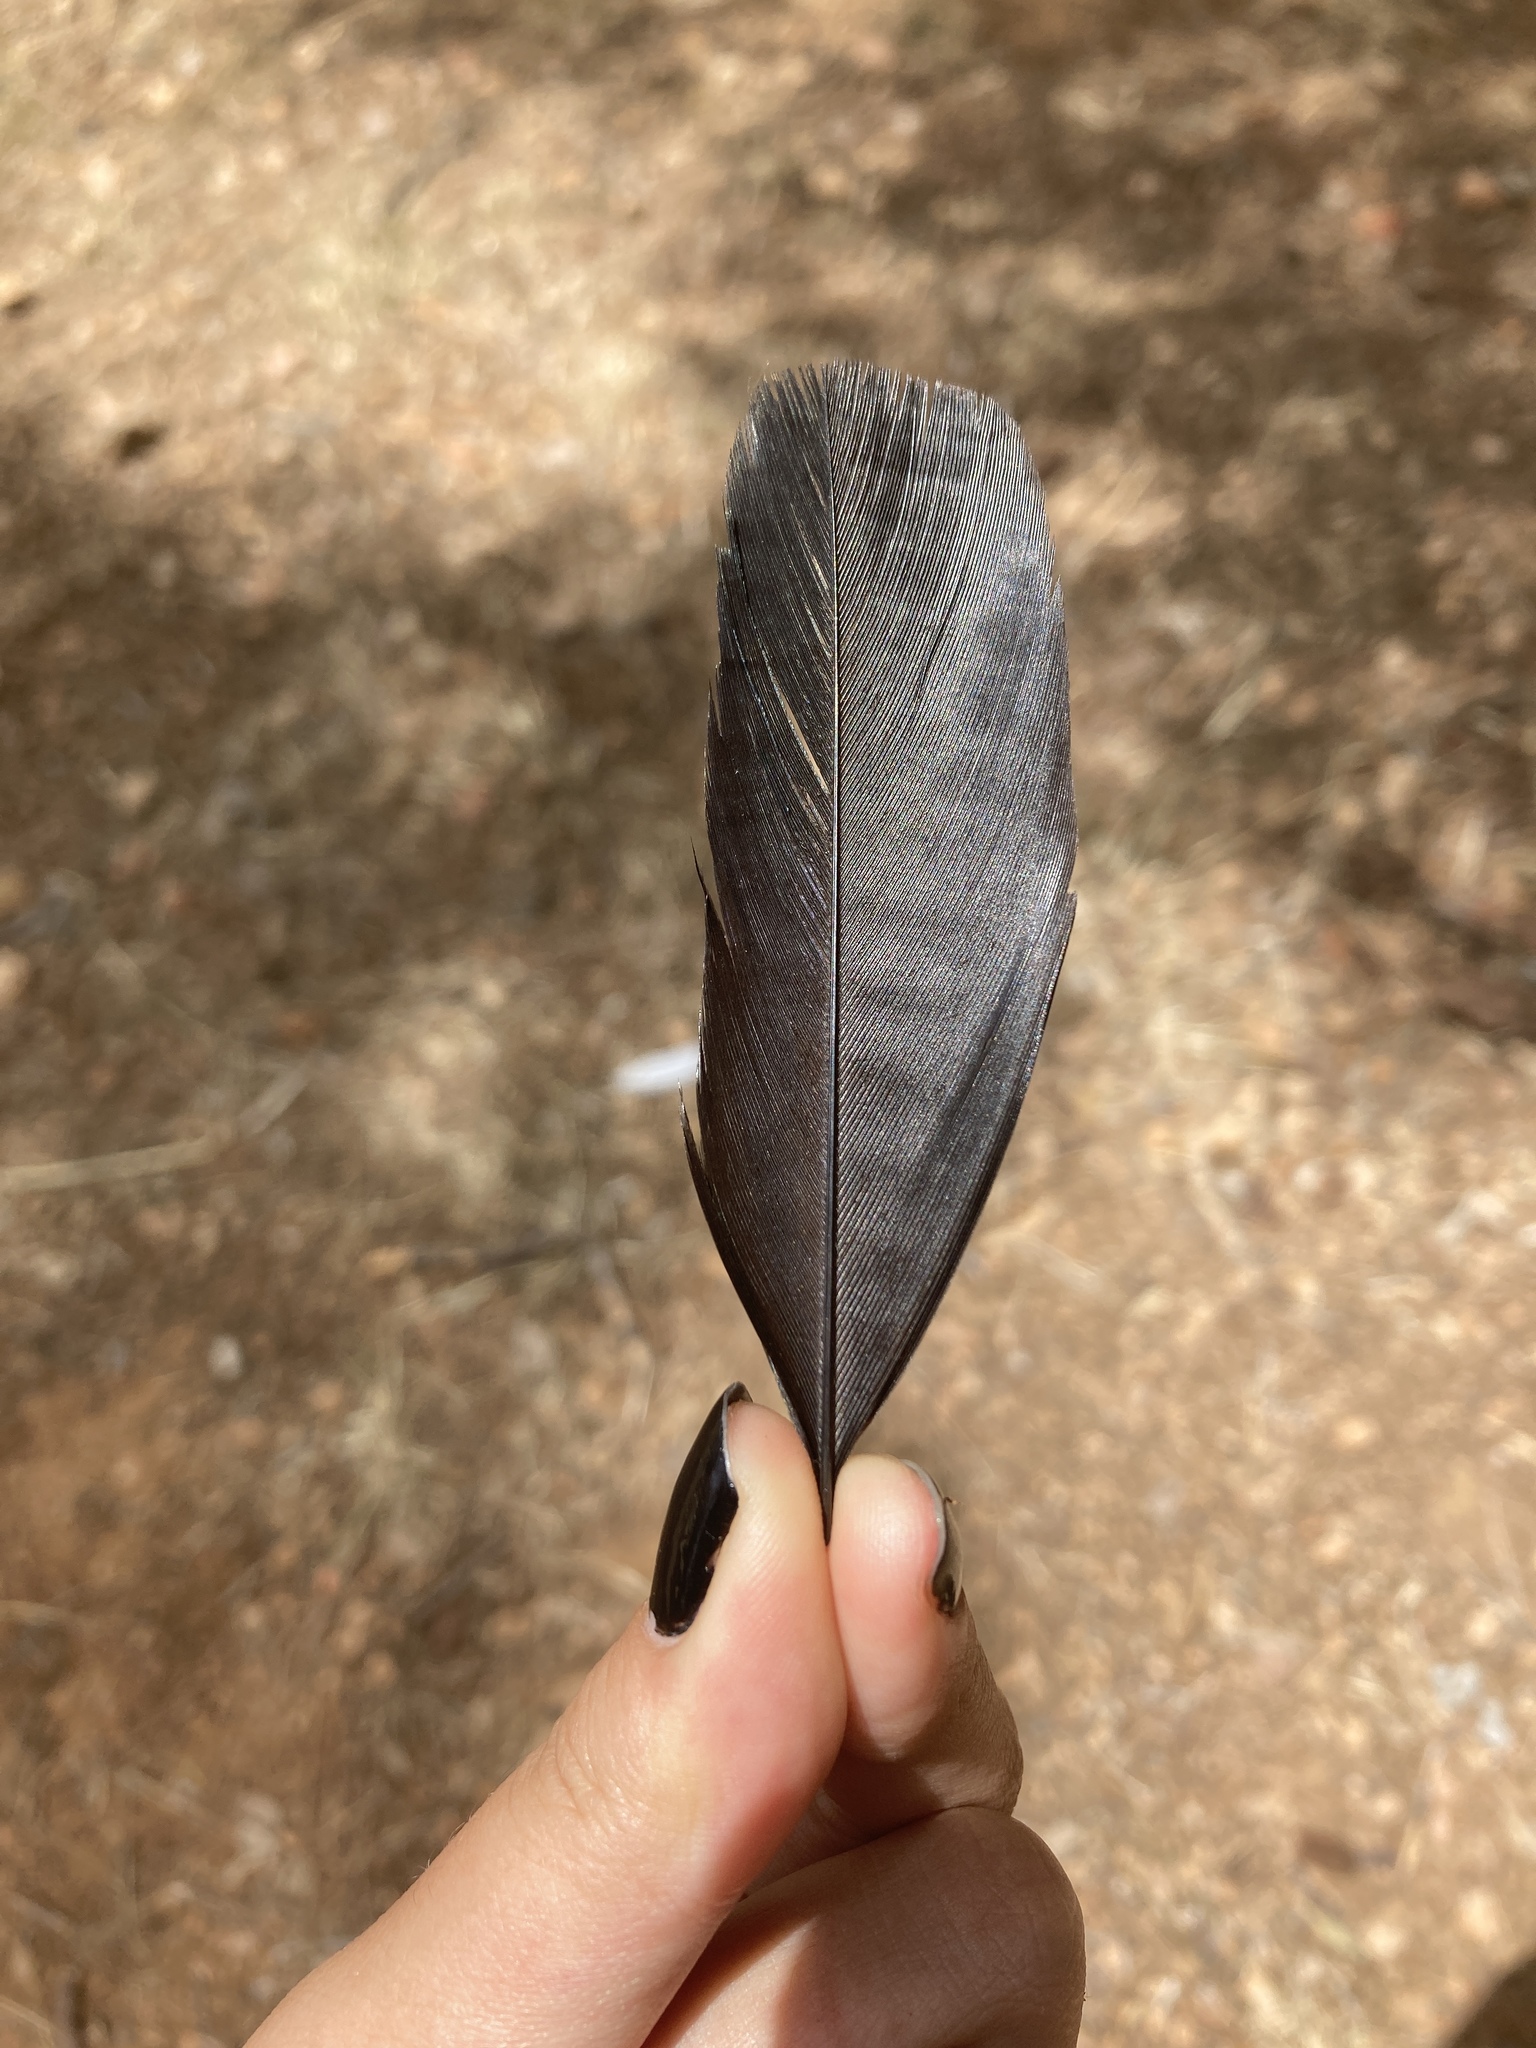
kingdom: Animalia
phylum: Chordata
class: Aves
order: Passeriformes
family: Corvidae
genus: Pica
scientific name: Pica pica
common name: Eurasian magpie
